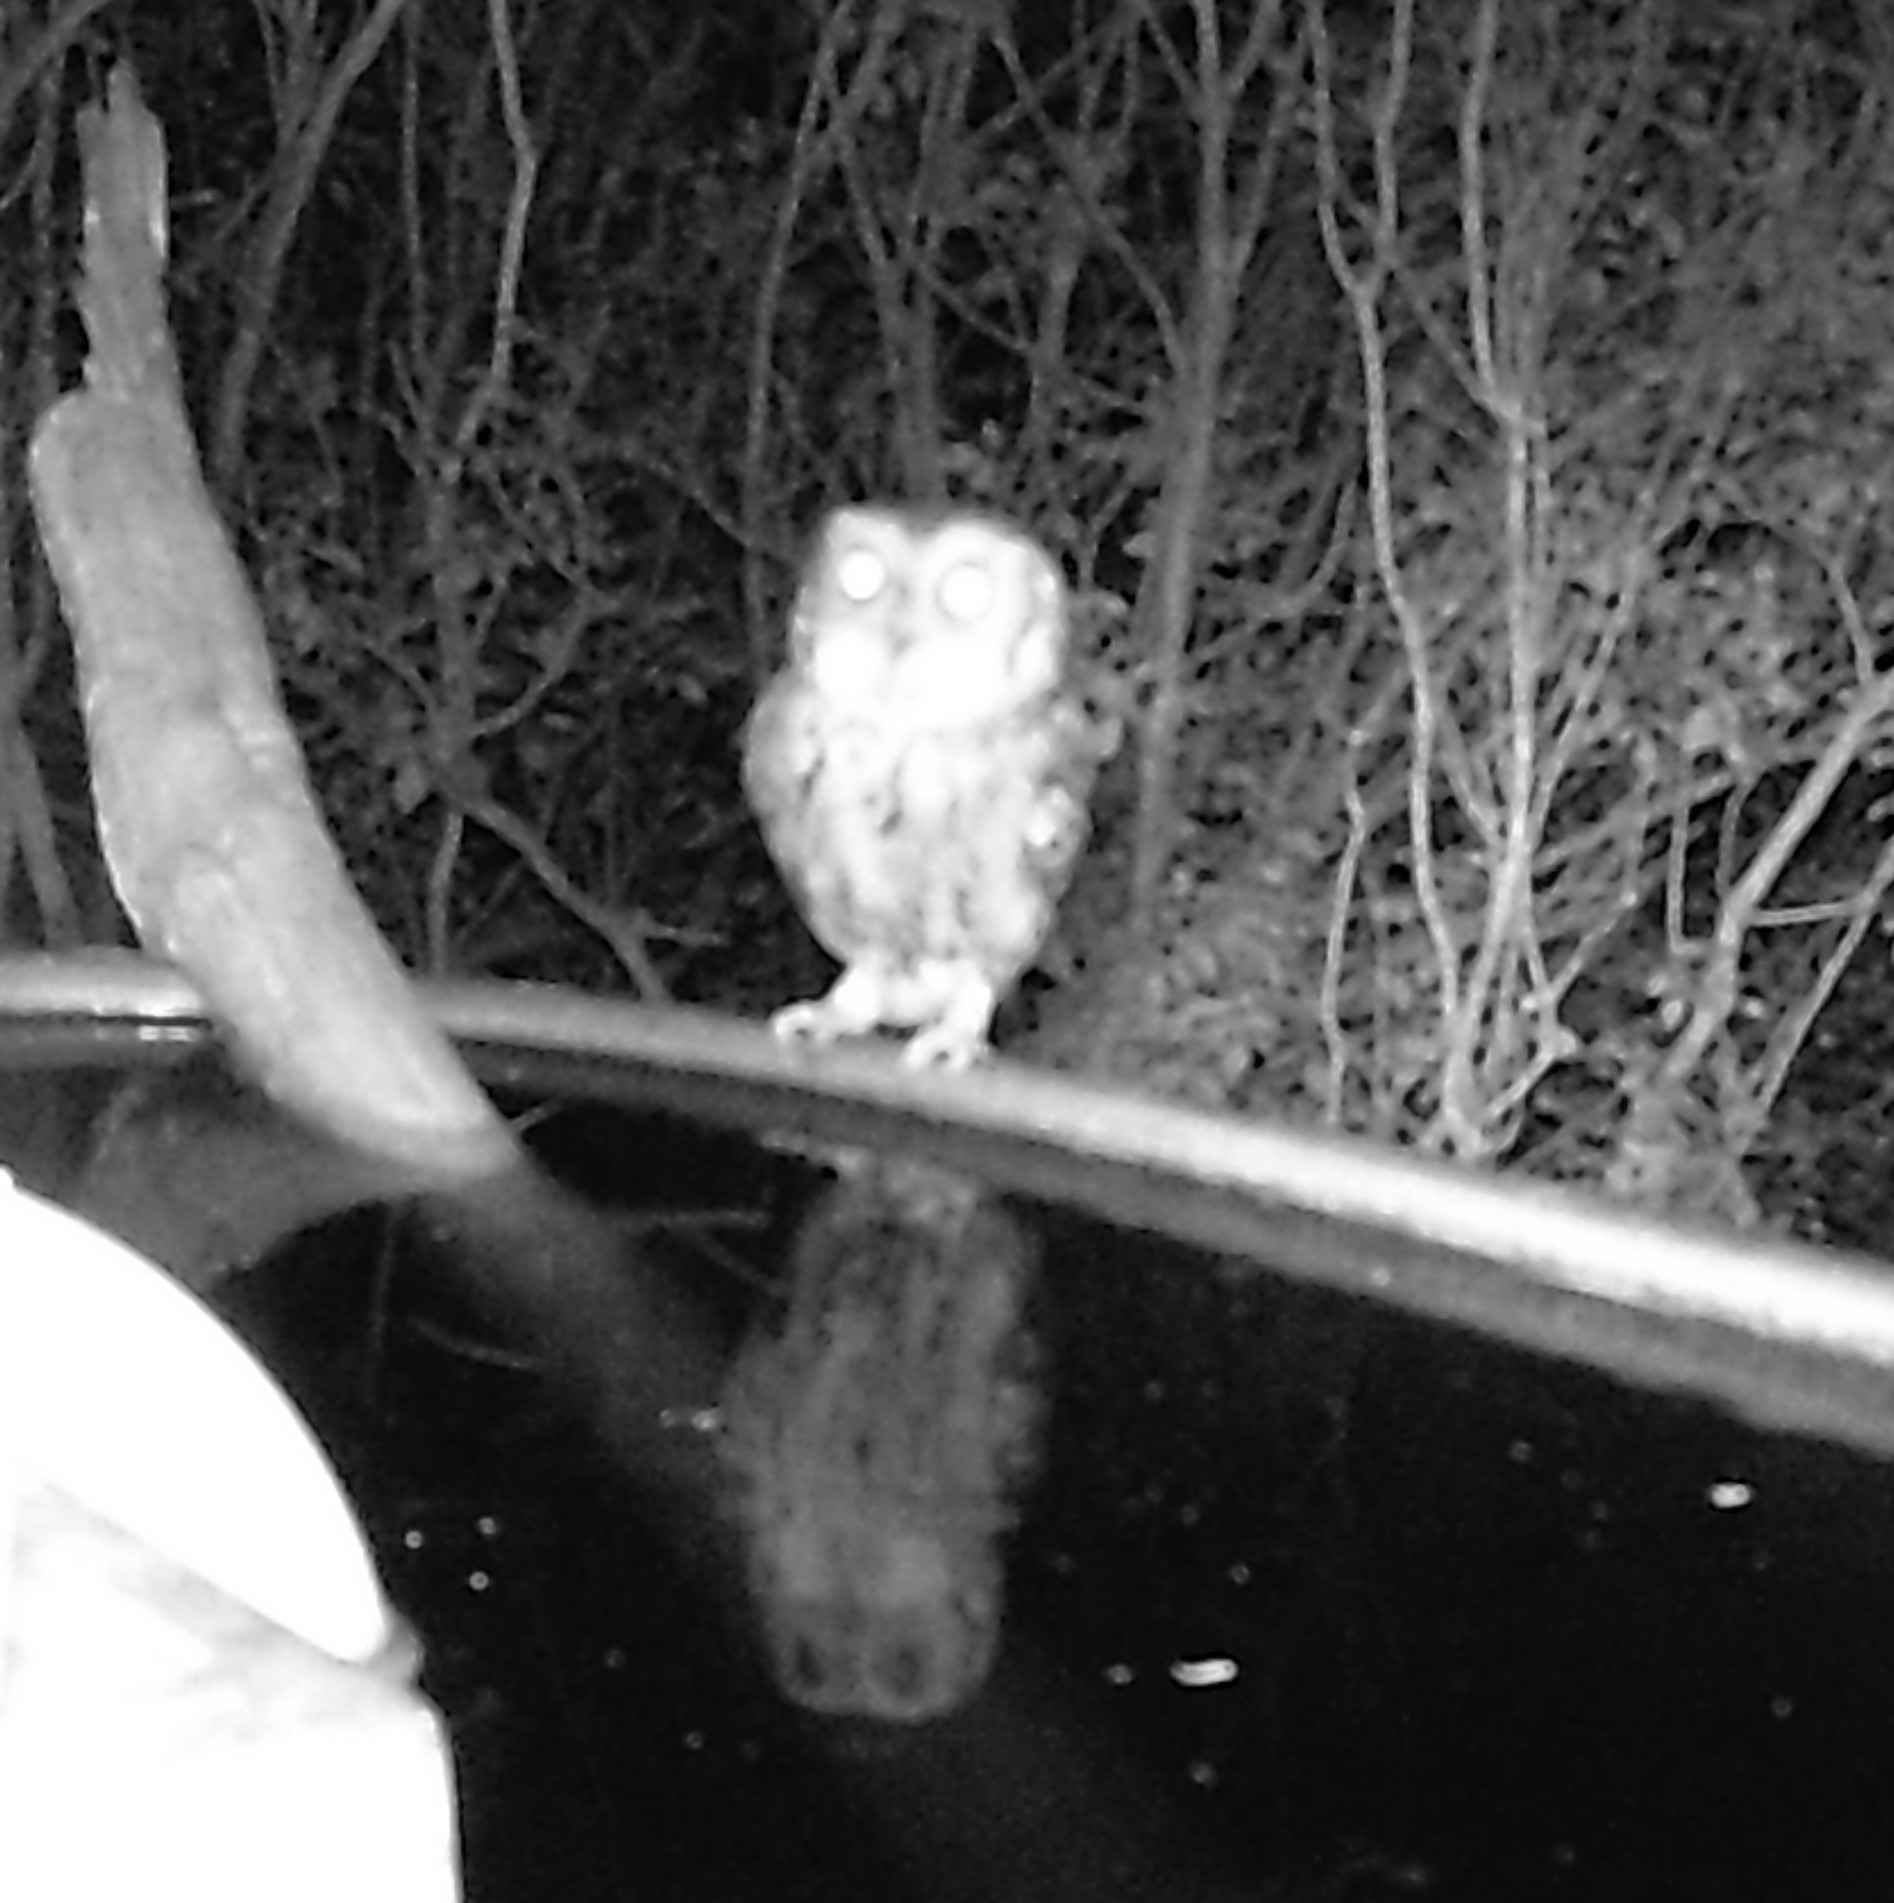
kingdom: Animalia
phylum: Chordata
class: Aves
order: Strigiformes
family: Strigidae
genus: Megascops
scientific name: Megascops asio
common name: Eastern screech-owl
